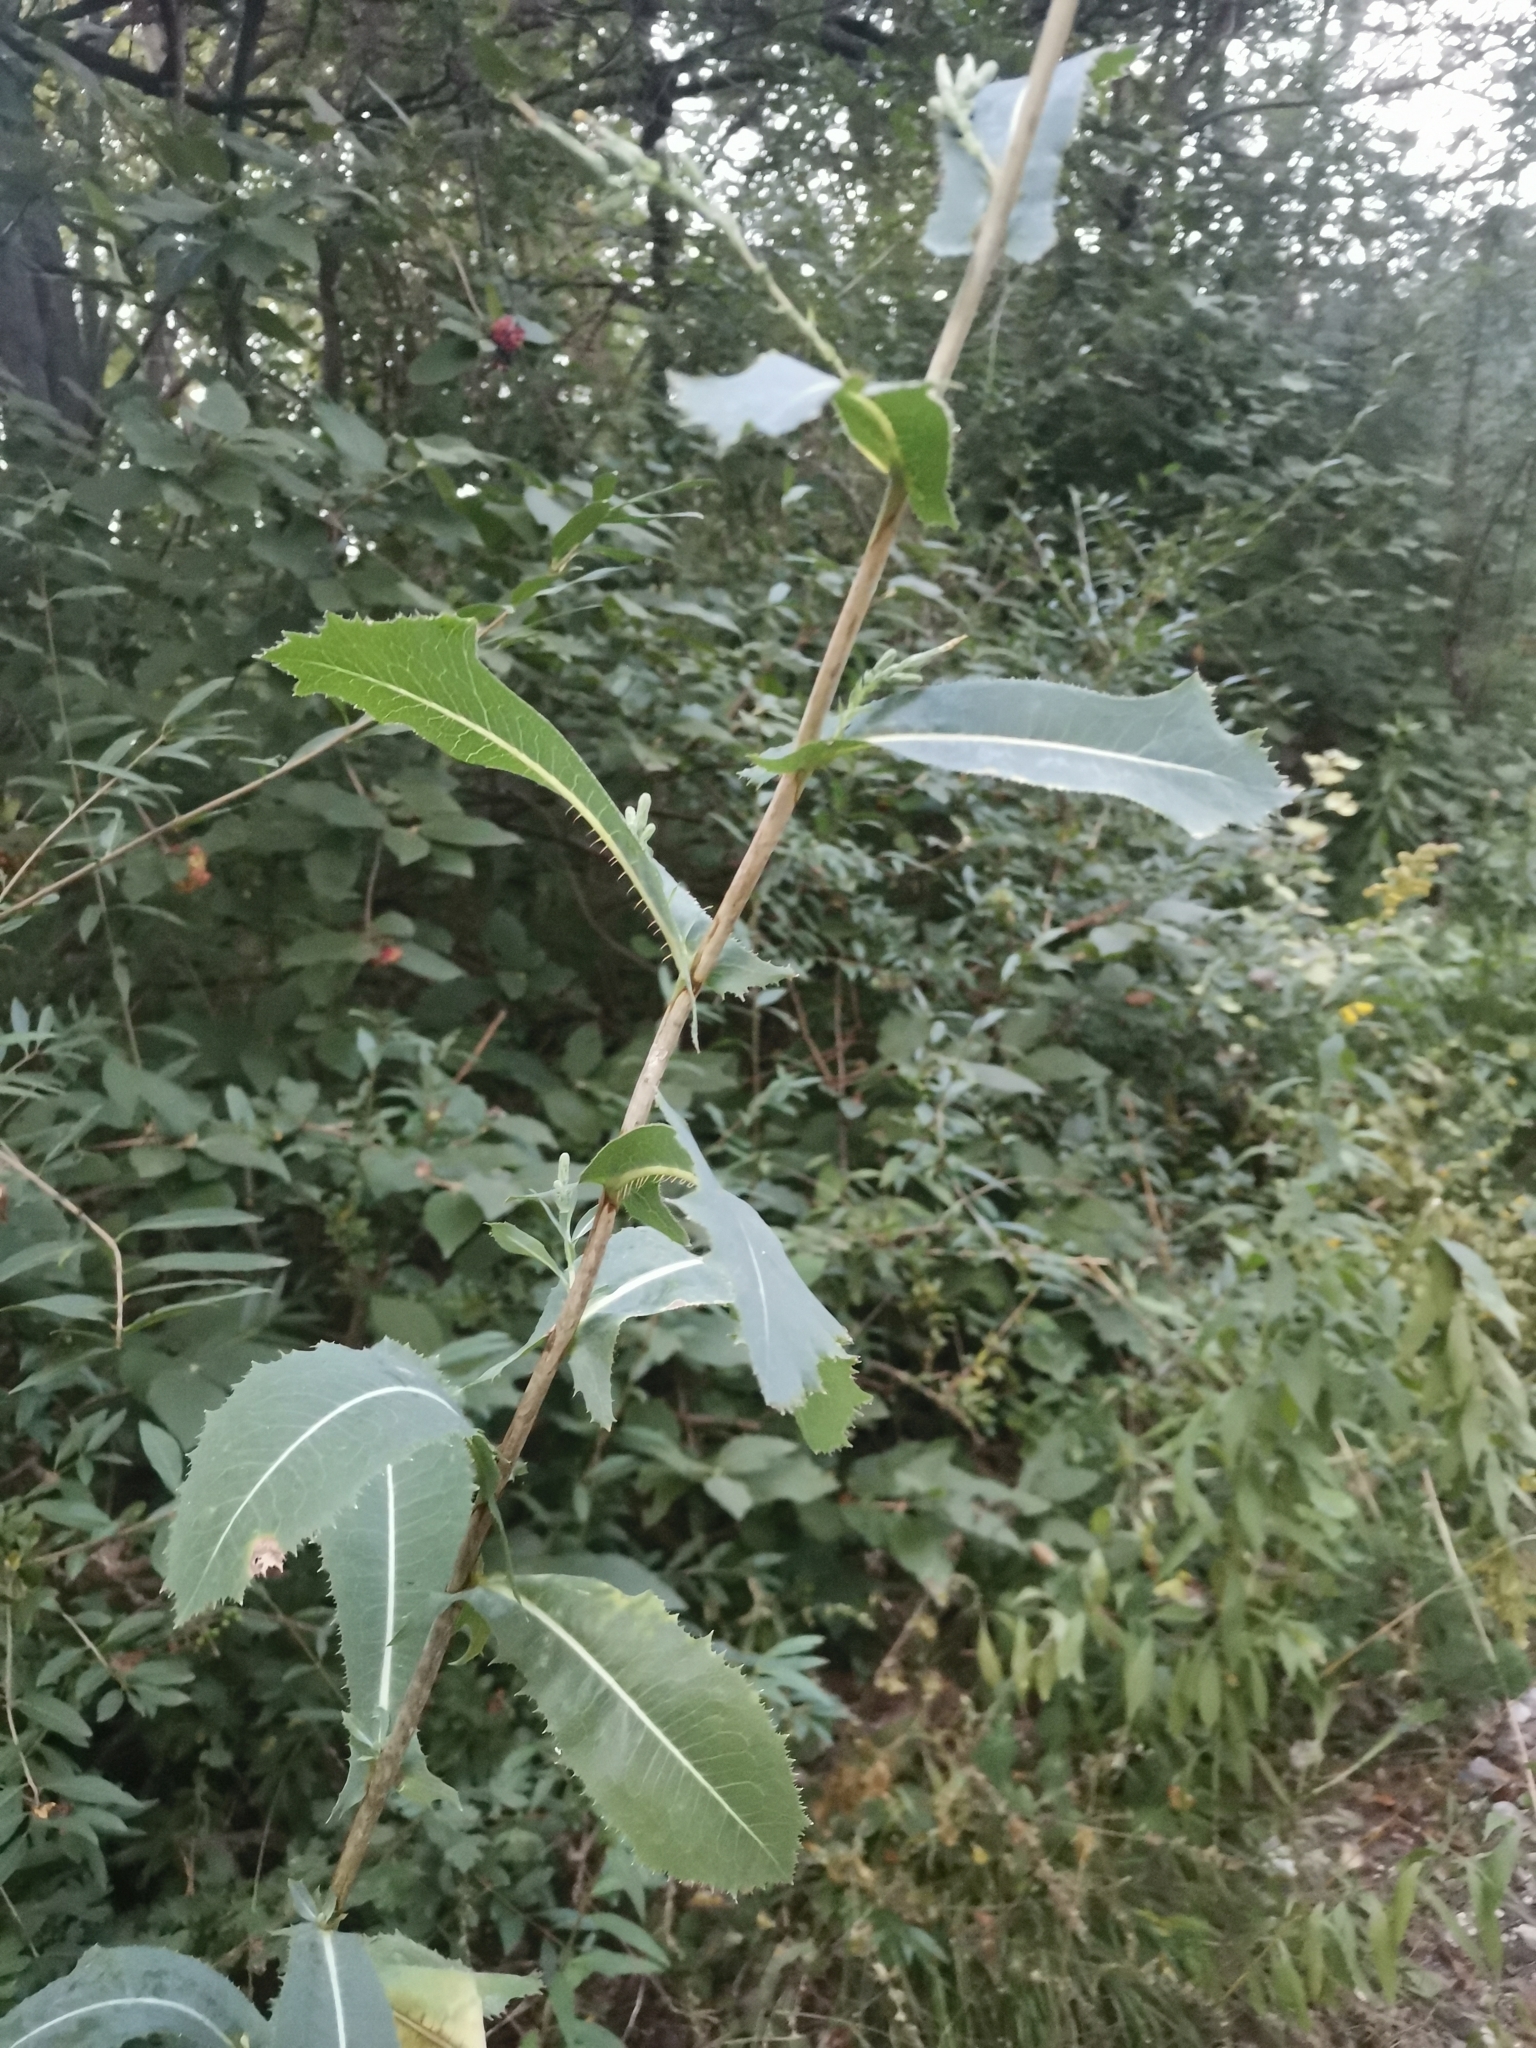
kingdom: Plantae
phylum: Tracheophyta
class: Magnoliopsida
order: Asterales
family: Asteraceae
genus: Lactuca
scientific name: Lactuca virosa
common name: Great lettuce
